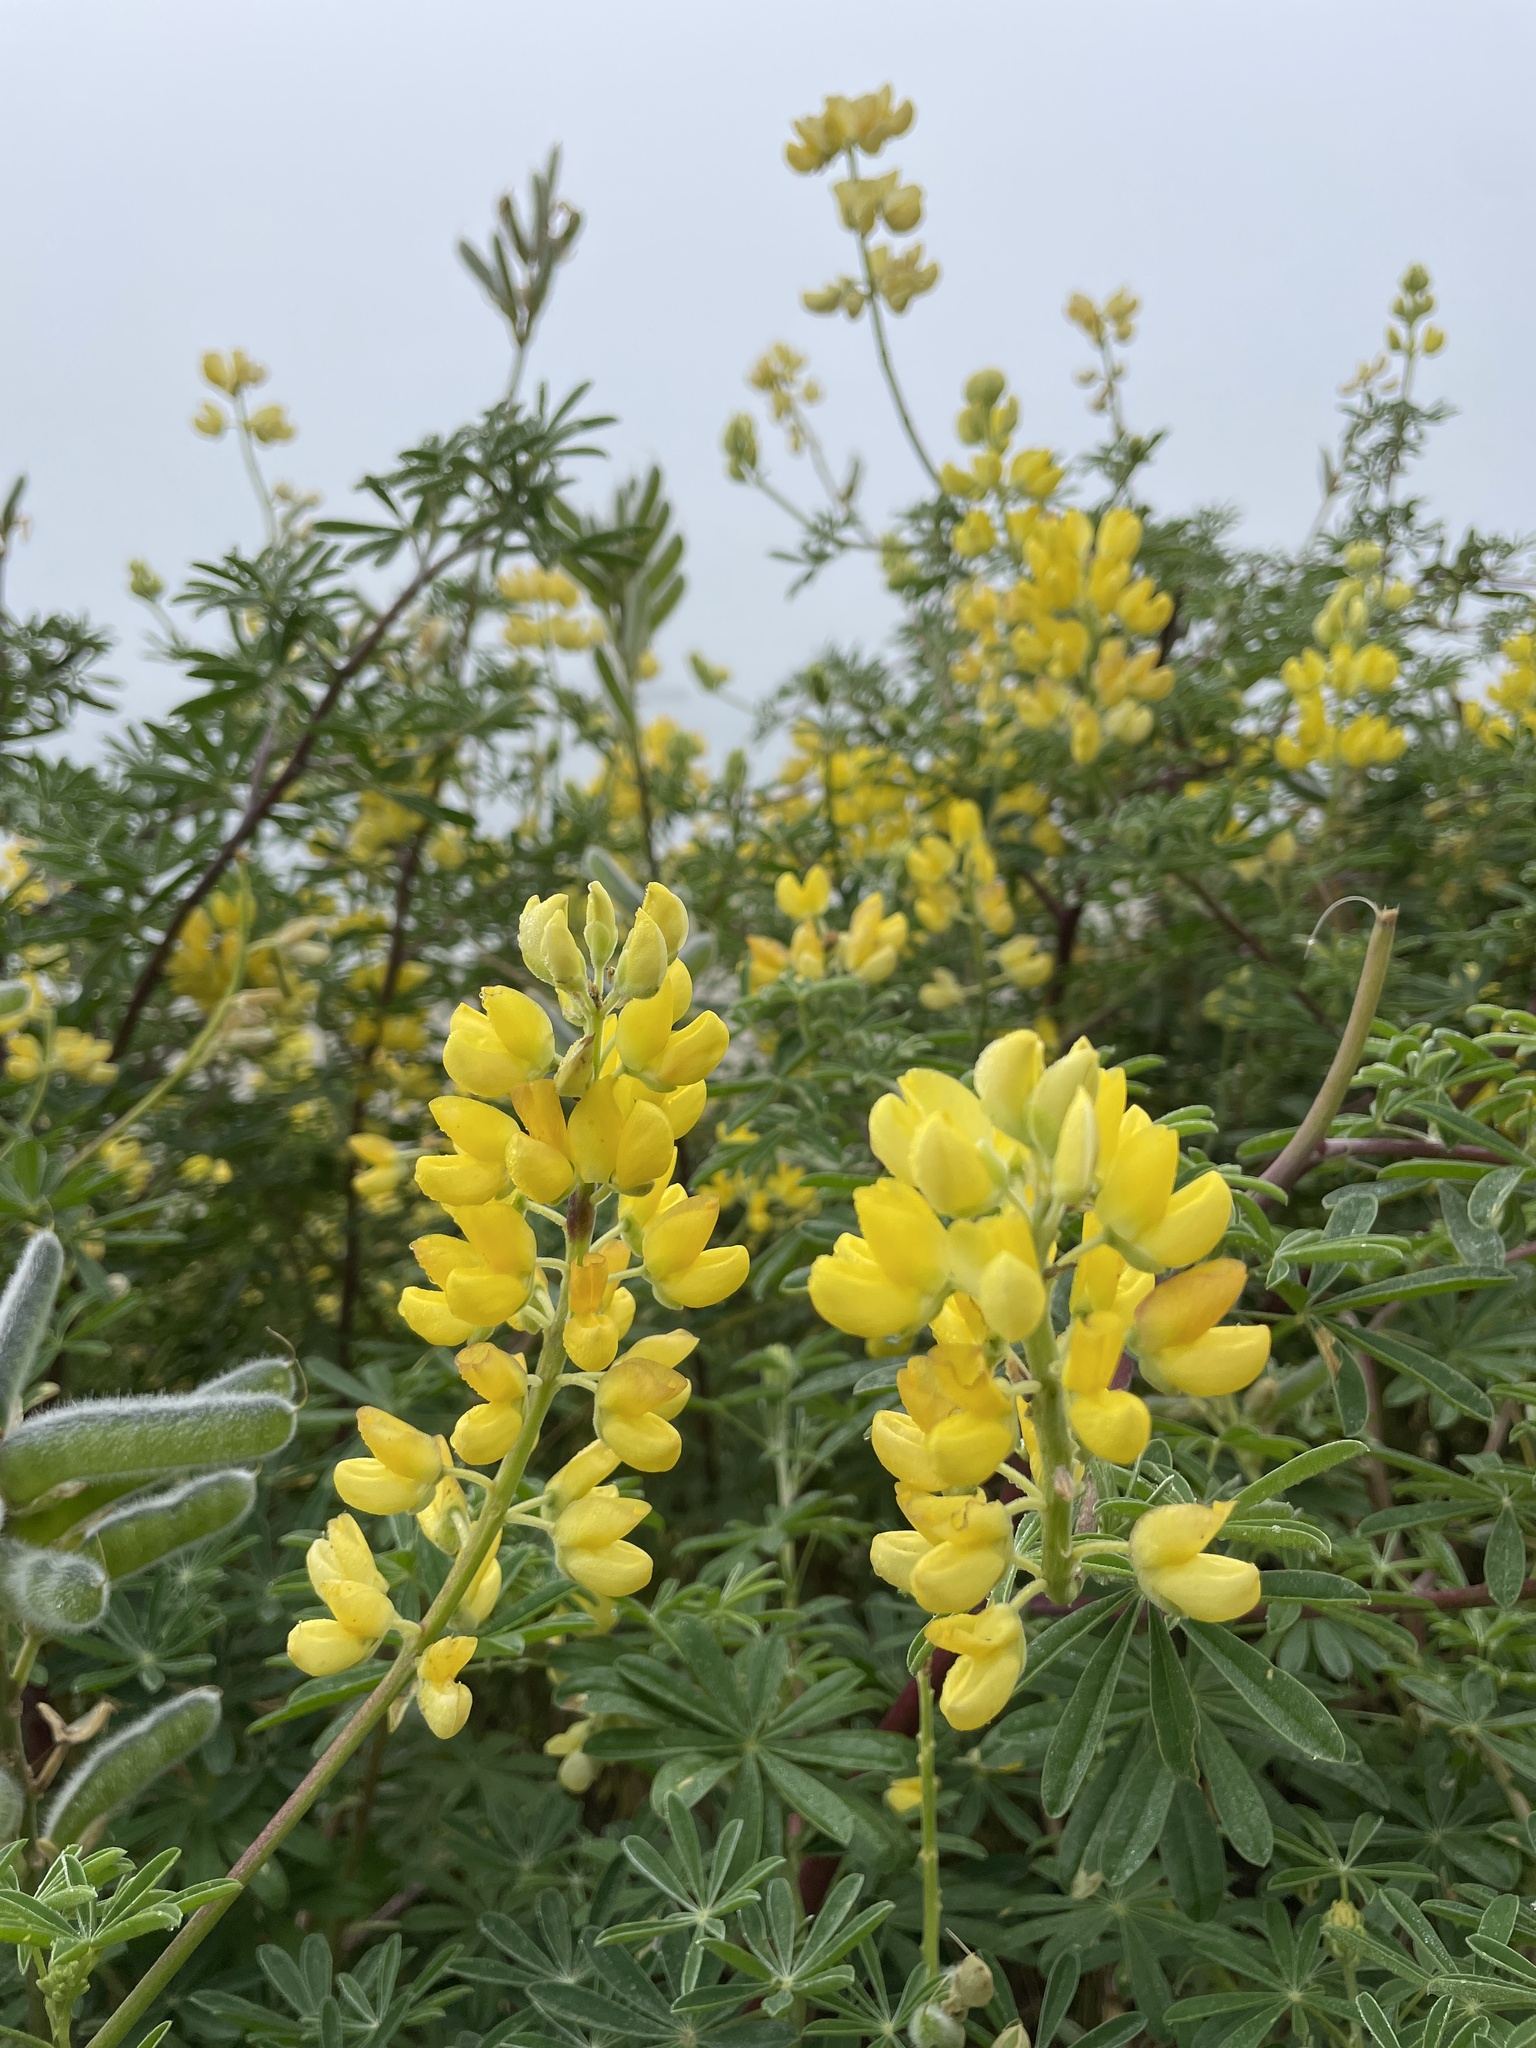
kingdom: Plantae
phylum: Tracheophyta
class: Magnoliopsida
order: Fabales
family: Fabaceae
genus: Lupinus
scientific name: Lupinus arboreus
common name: Yellow bush lupine
